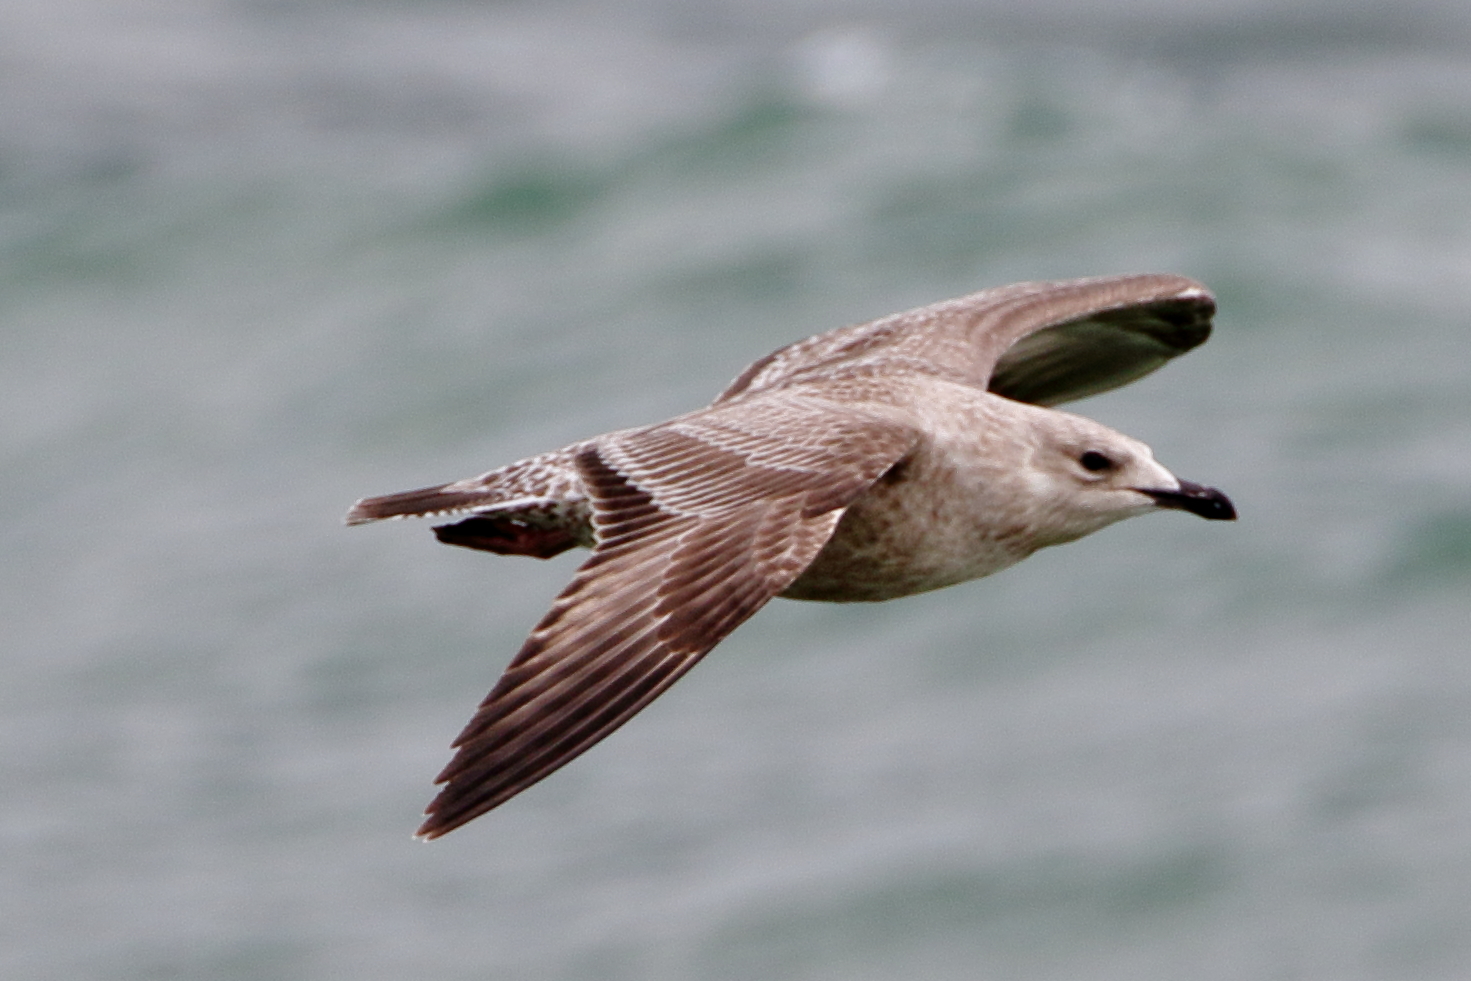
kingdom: Animalia
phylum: Chordata
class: Aves
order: Charadriiformes
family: Laridae
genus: Larus
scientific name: Larus argentatus
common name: Herring gull
